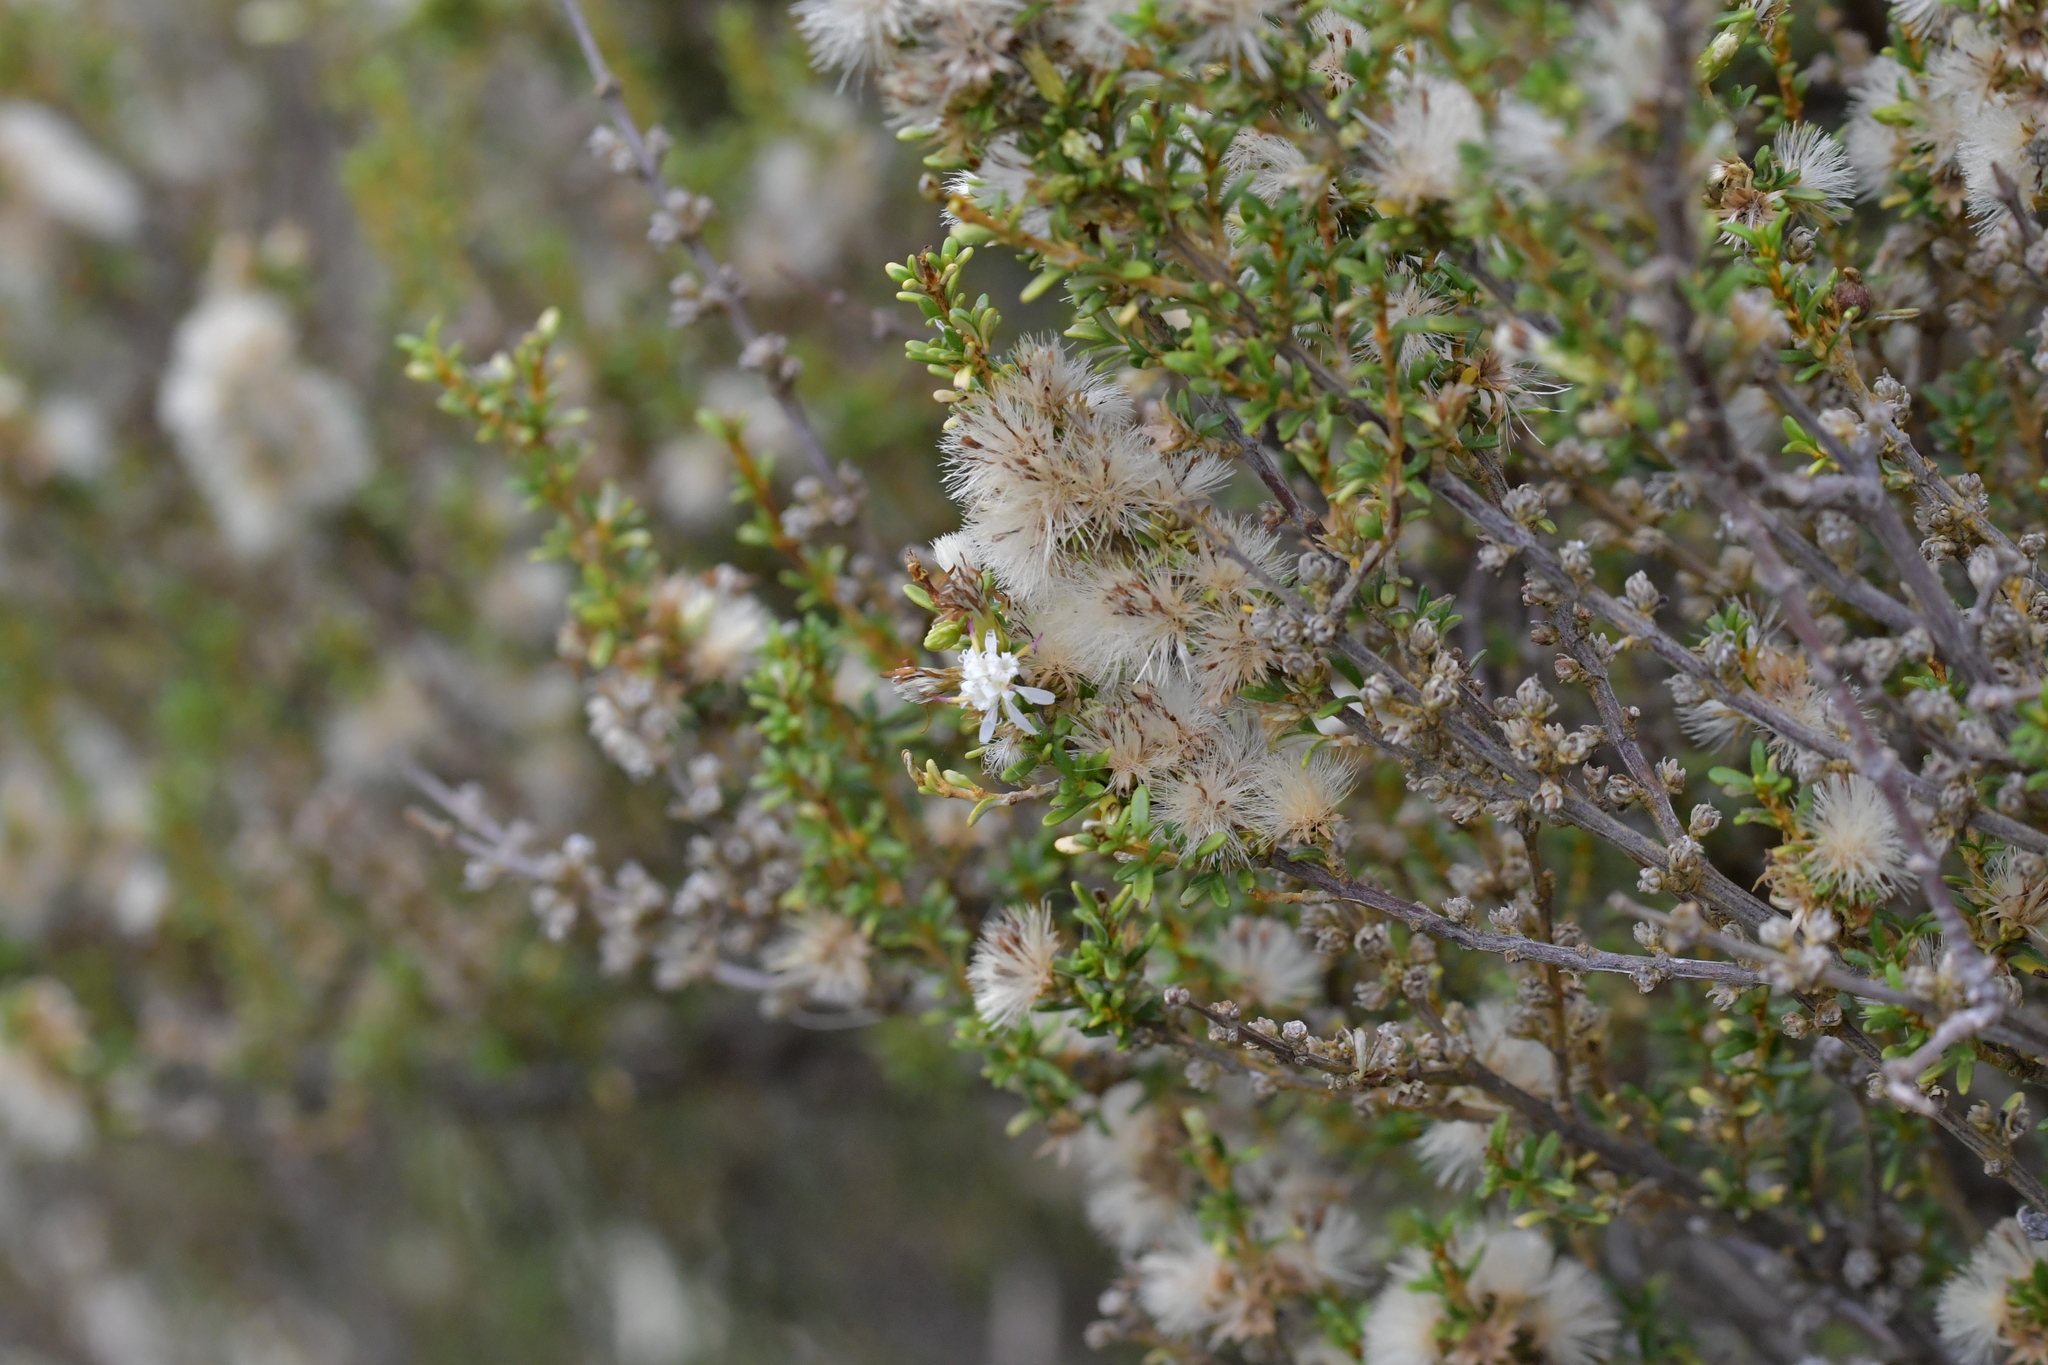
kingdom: Plantae
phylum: Tracheophyta
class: Magnoliopsida
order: Asterales
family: Asteraceae
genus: Olearia
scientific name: Olearia solandri
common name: Coastal daisybush
